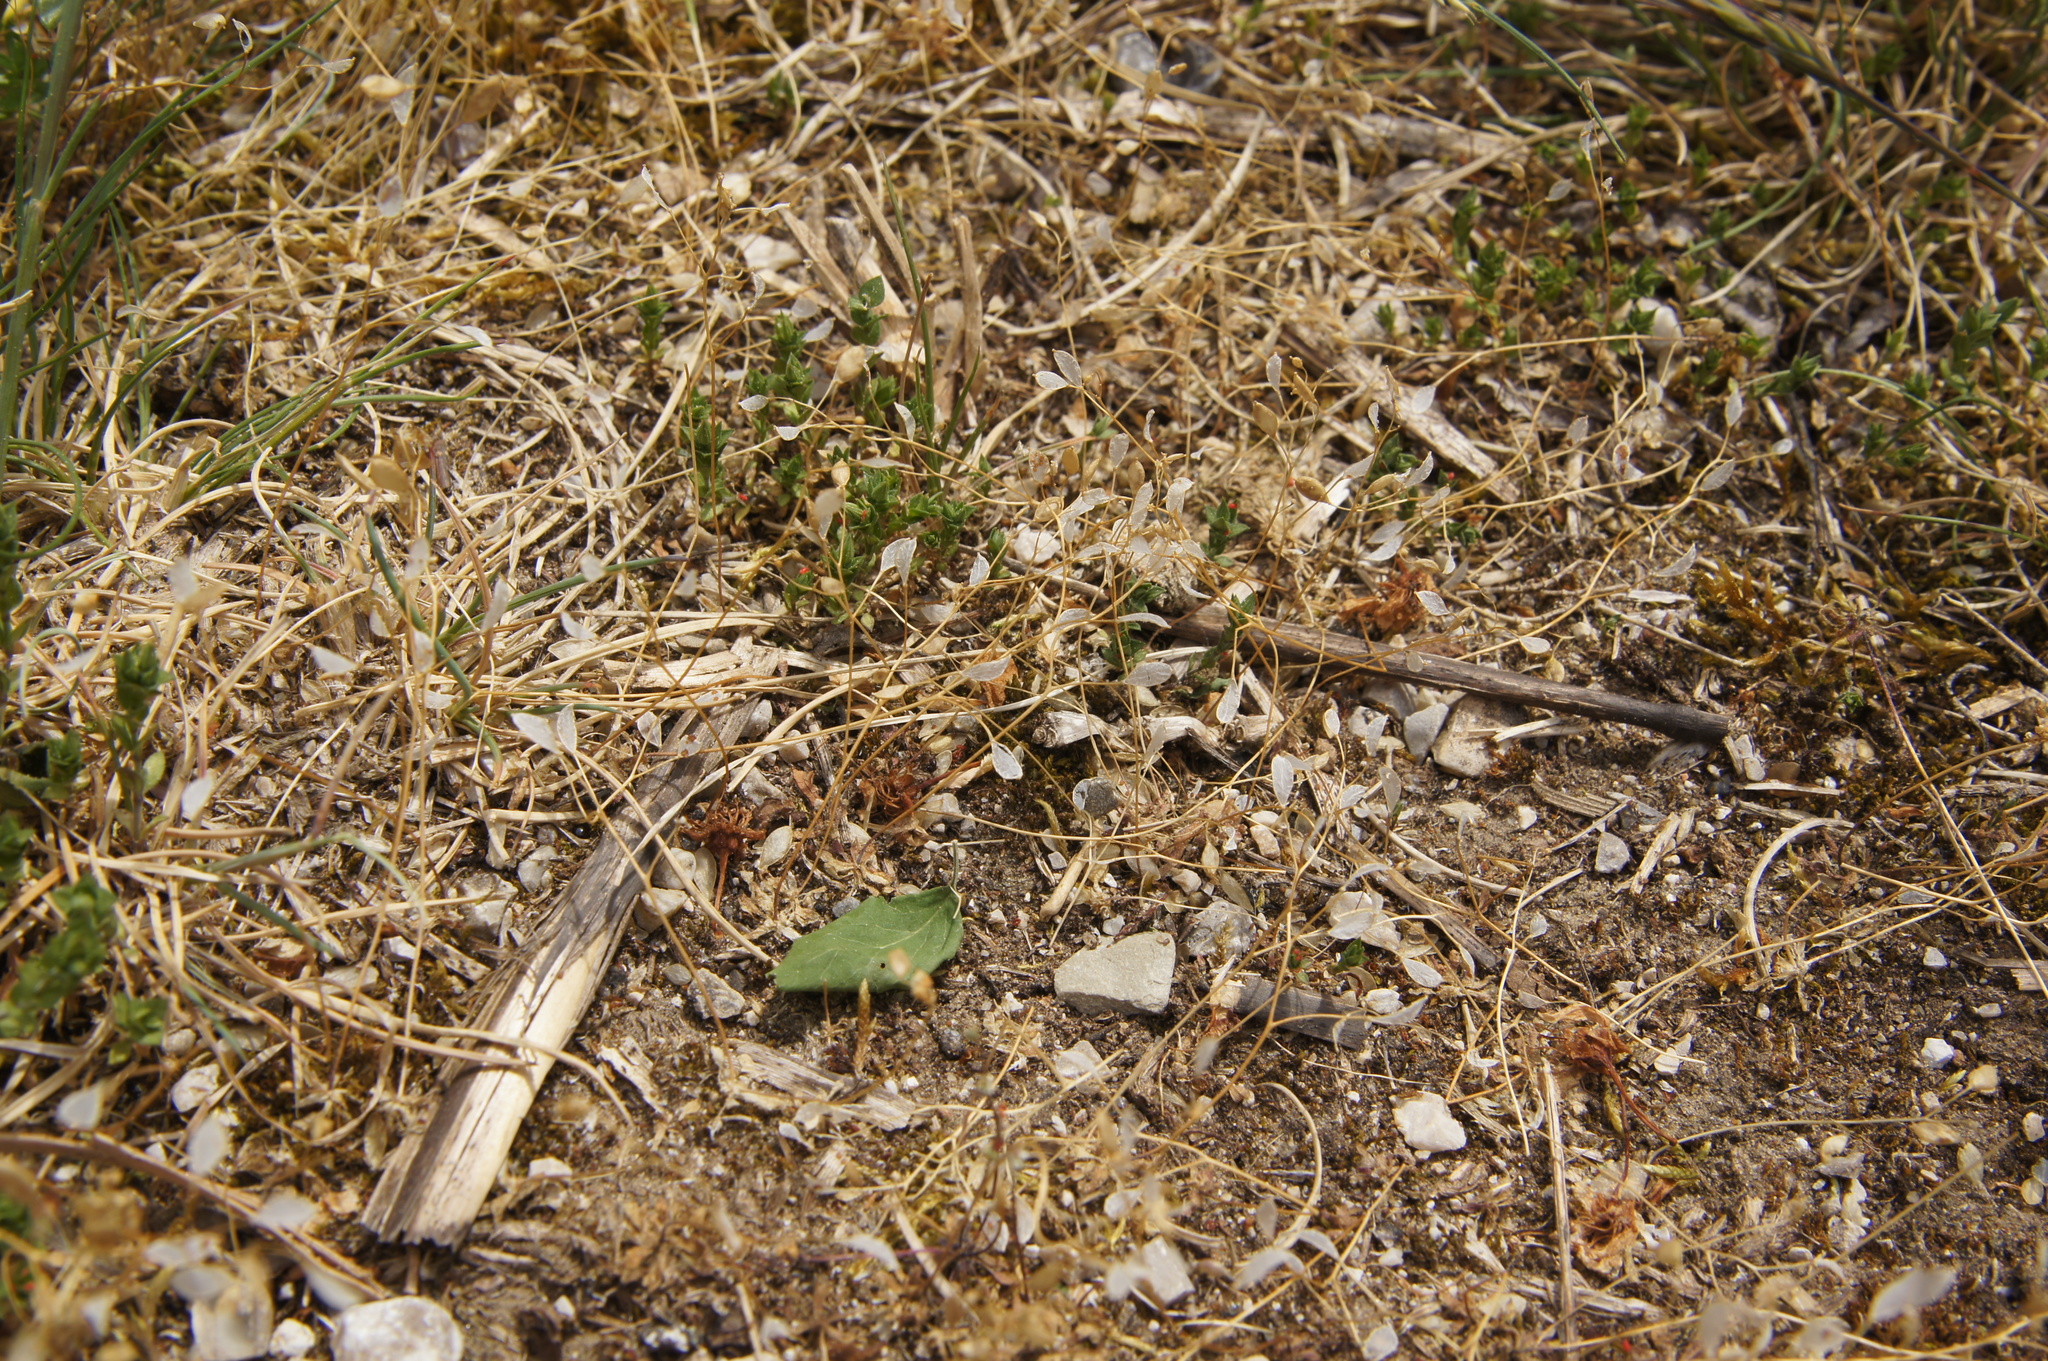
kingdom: Plantae
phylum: Tracheophyta
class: Magnoliopsida
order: Brassicales
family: Brassicaceae
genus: Draba
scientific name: Draba verna
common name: Spring draba
